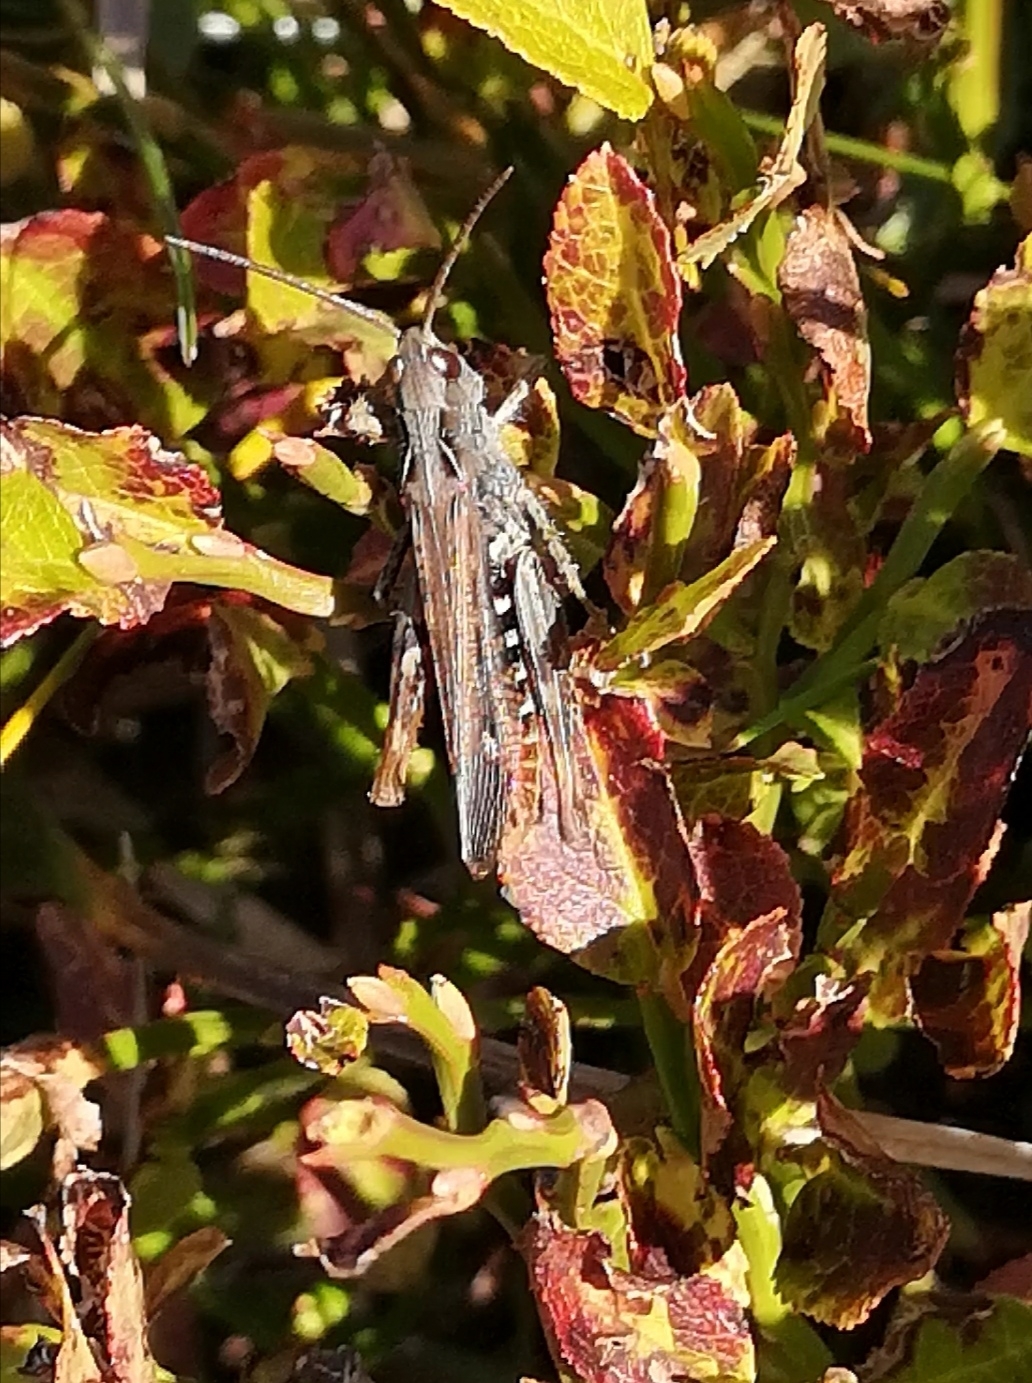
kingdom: Animalia
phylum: Arthropoda
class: Insecta
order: Orthoptera
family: Acrididae
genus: Chorthippus
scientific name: Chorthippus brunneus
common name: Field grasshopper
